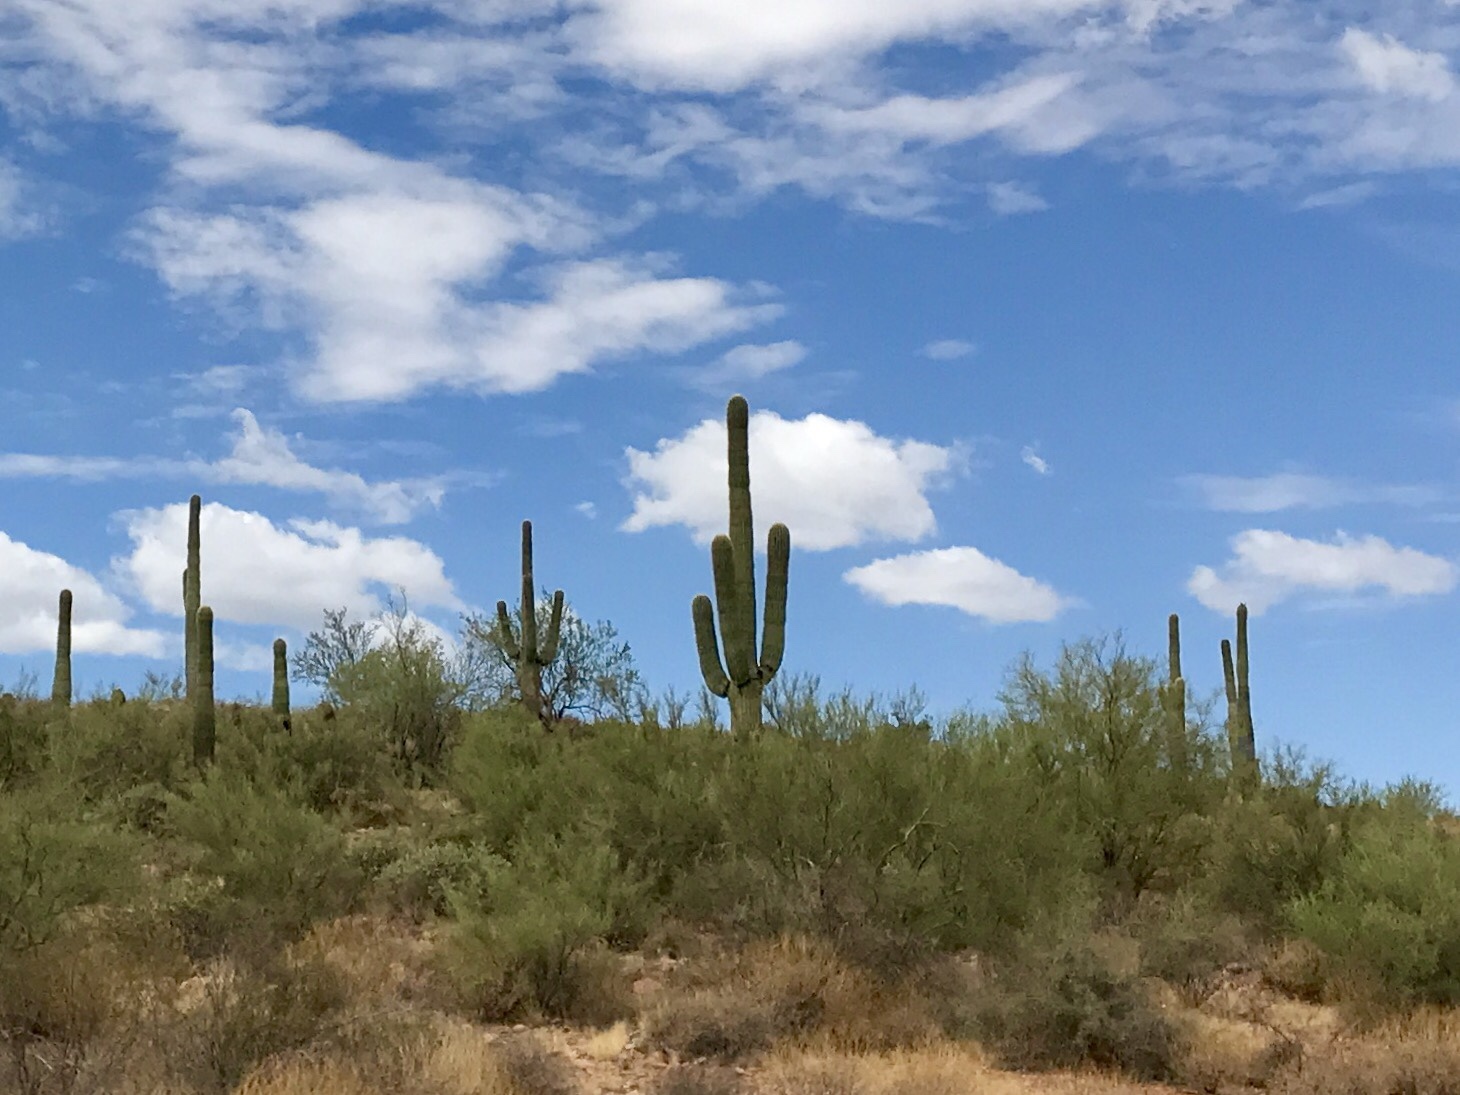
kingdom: Plantae
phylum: Tracheophyta
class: Magnoliopsida
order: Caryophyllales
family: Cactaceae
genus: Carnegiea
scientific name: Carnegiea gigantea
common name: Saguaro
